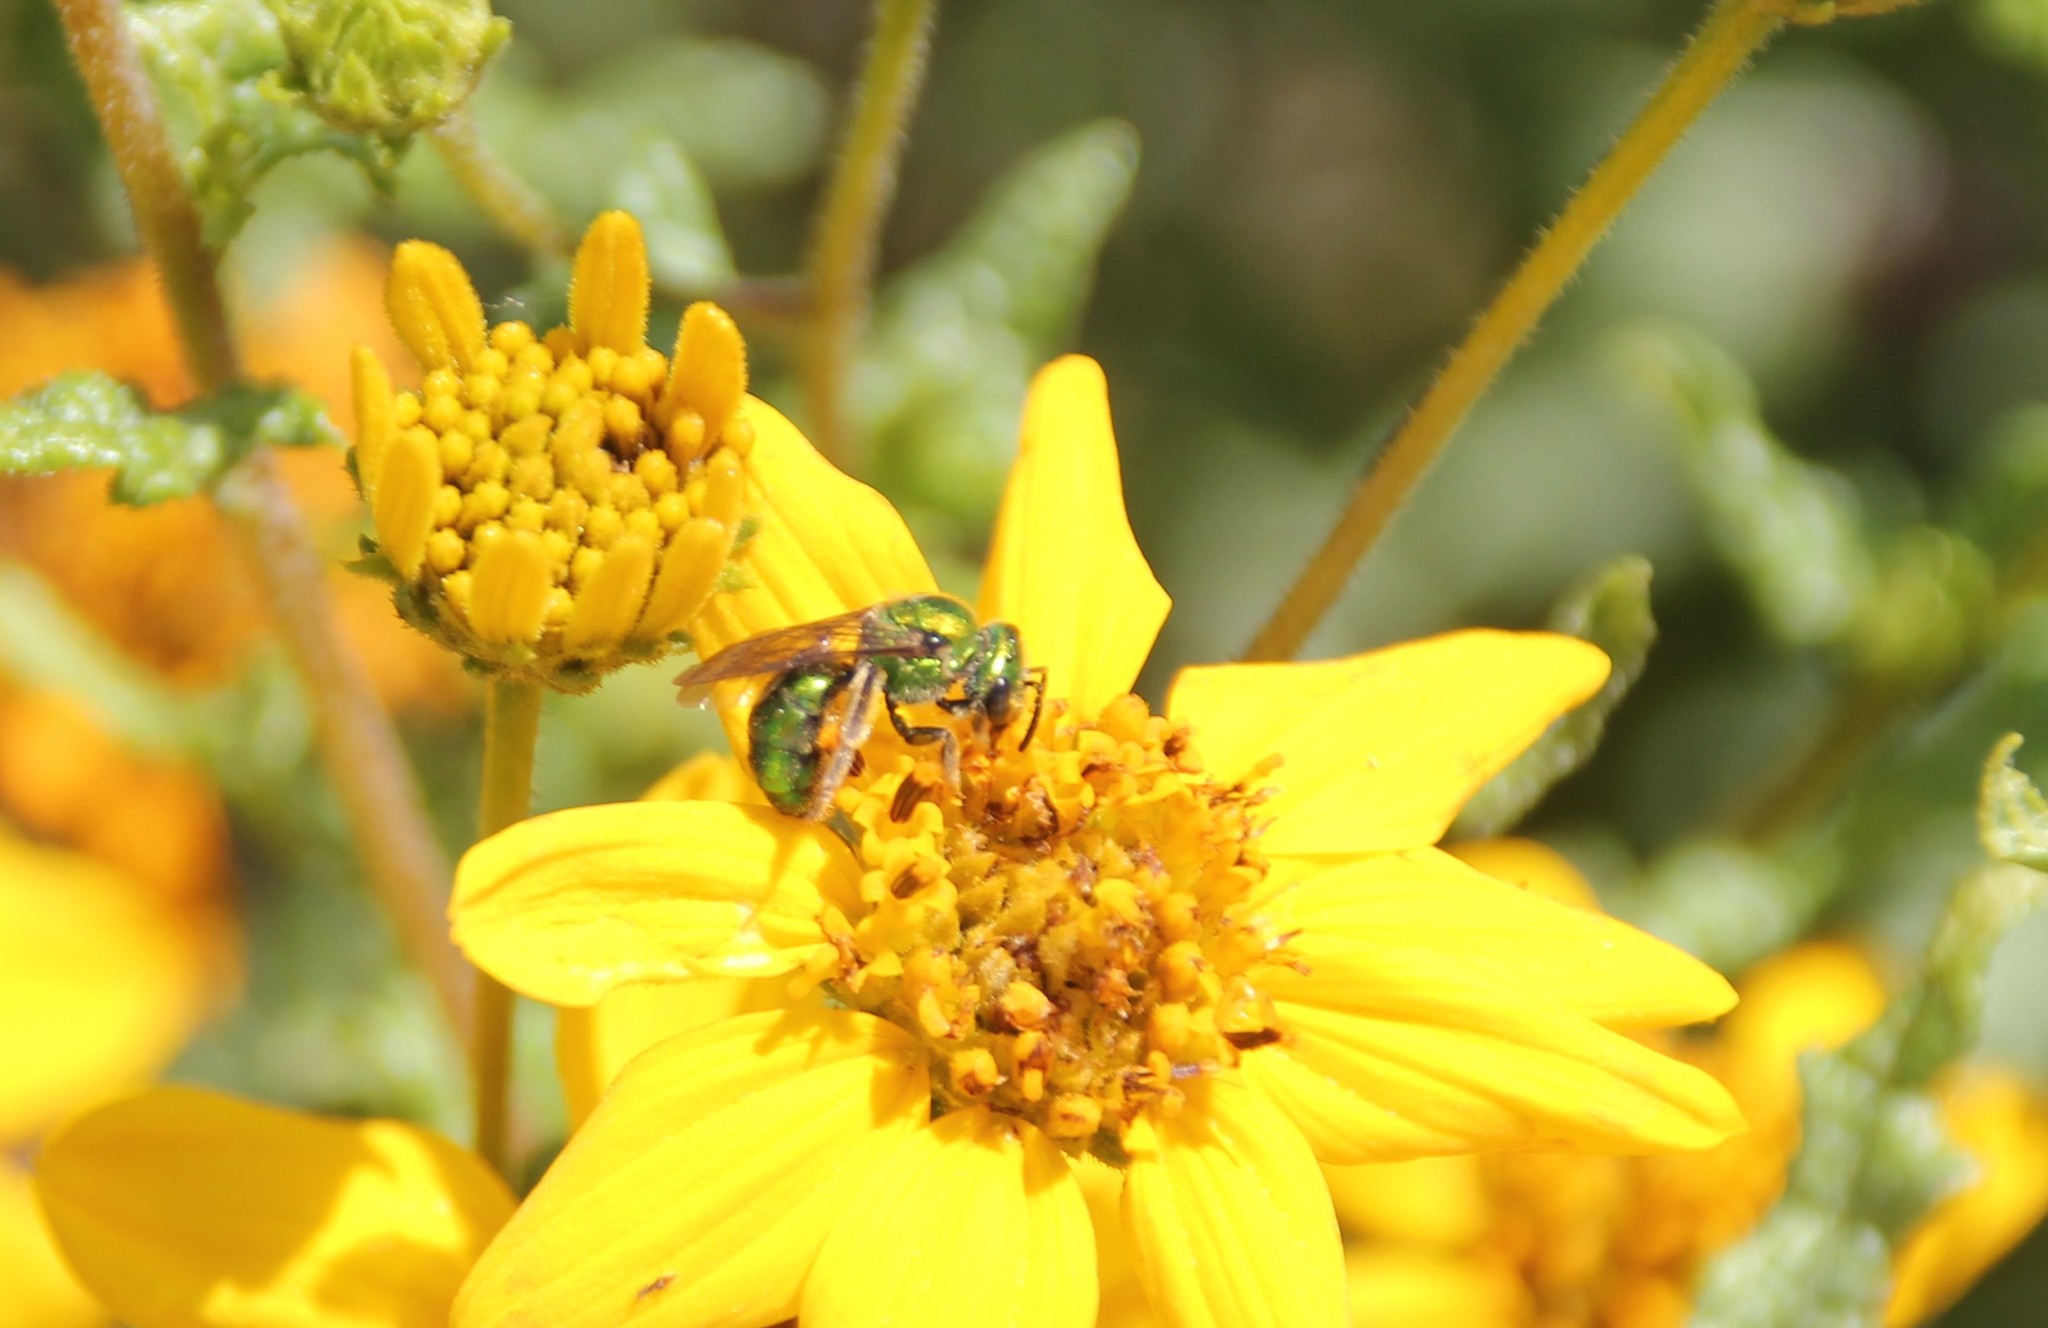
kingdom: Animalia
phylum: Arthropoda
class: Insecta
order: Hymenoptera
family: Halictidae
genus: Augochlorella
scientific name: Augochlorella pomoniella
